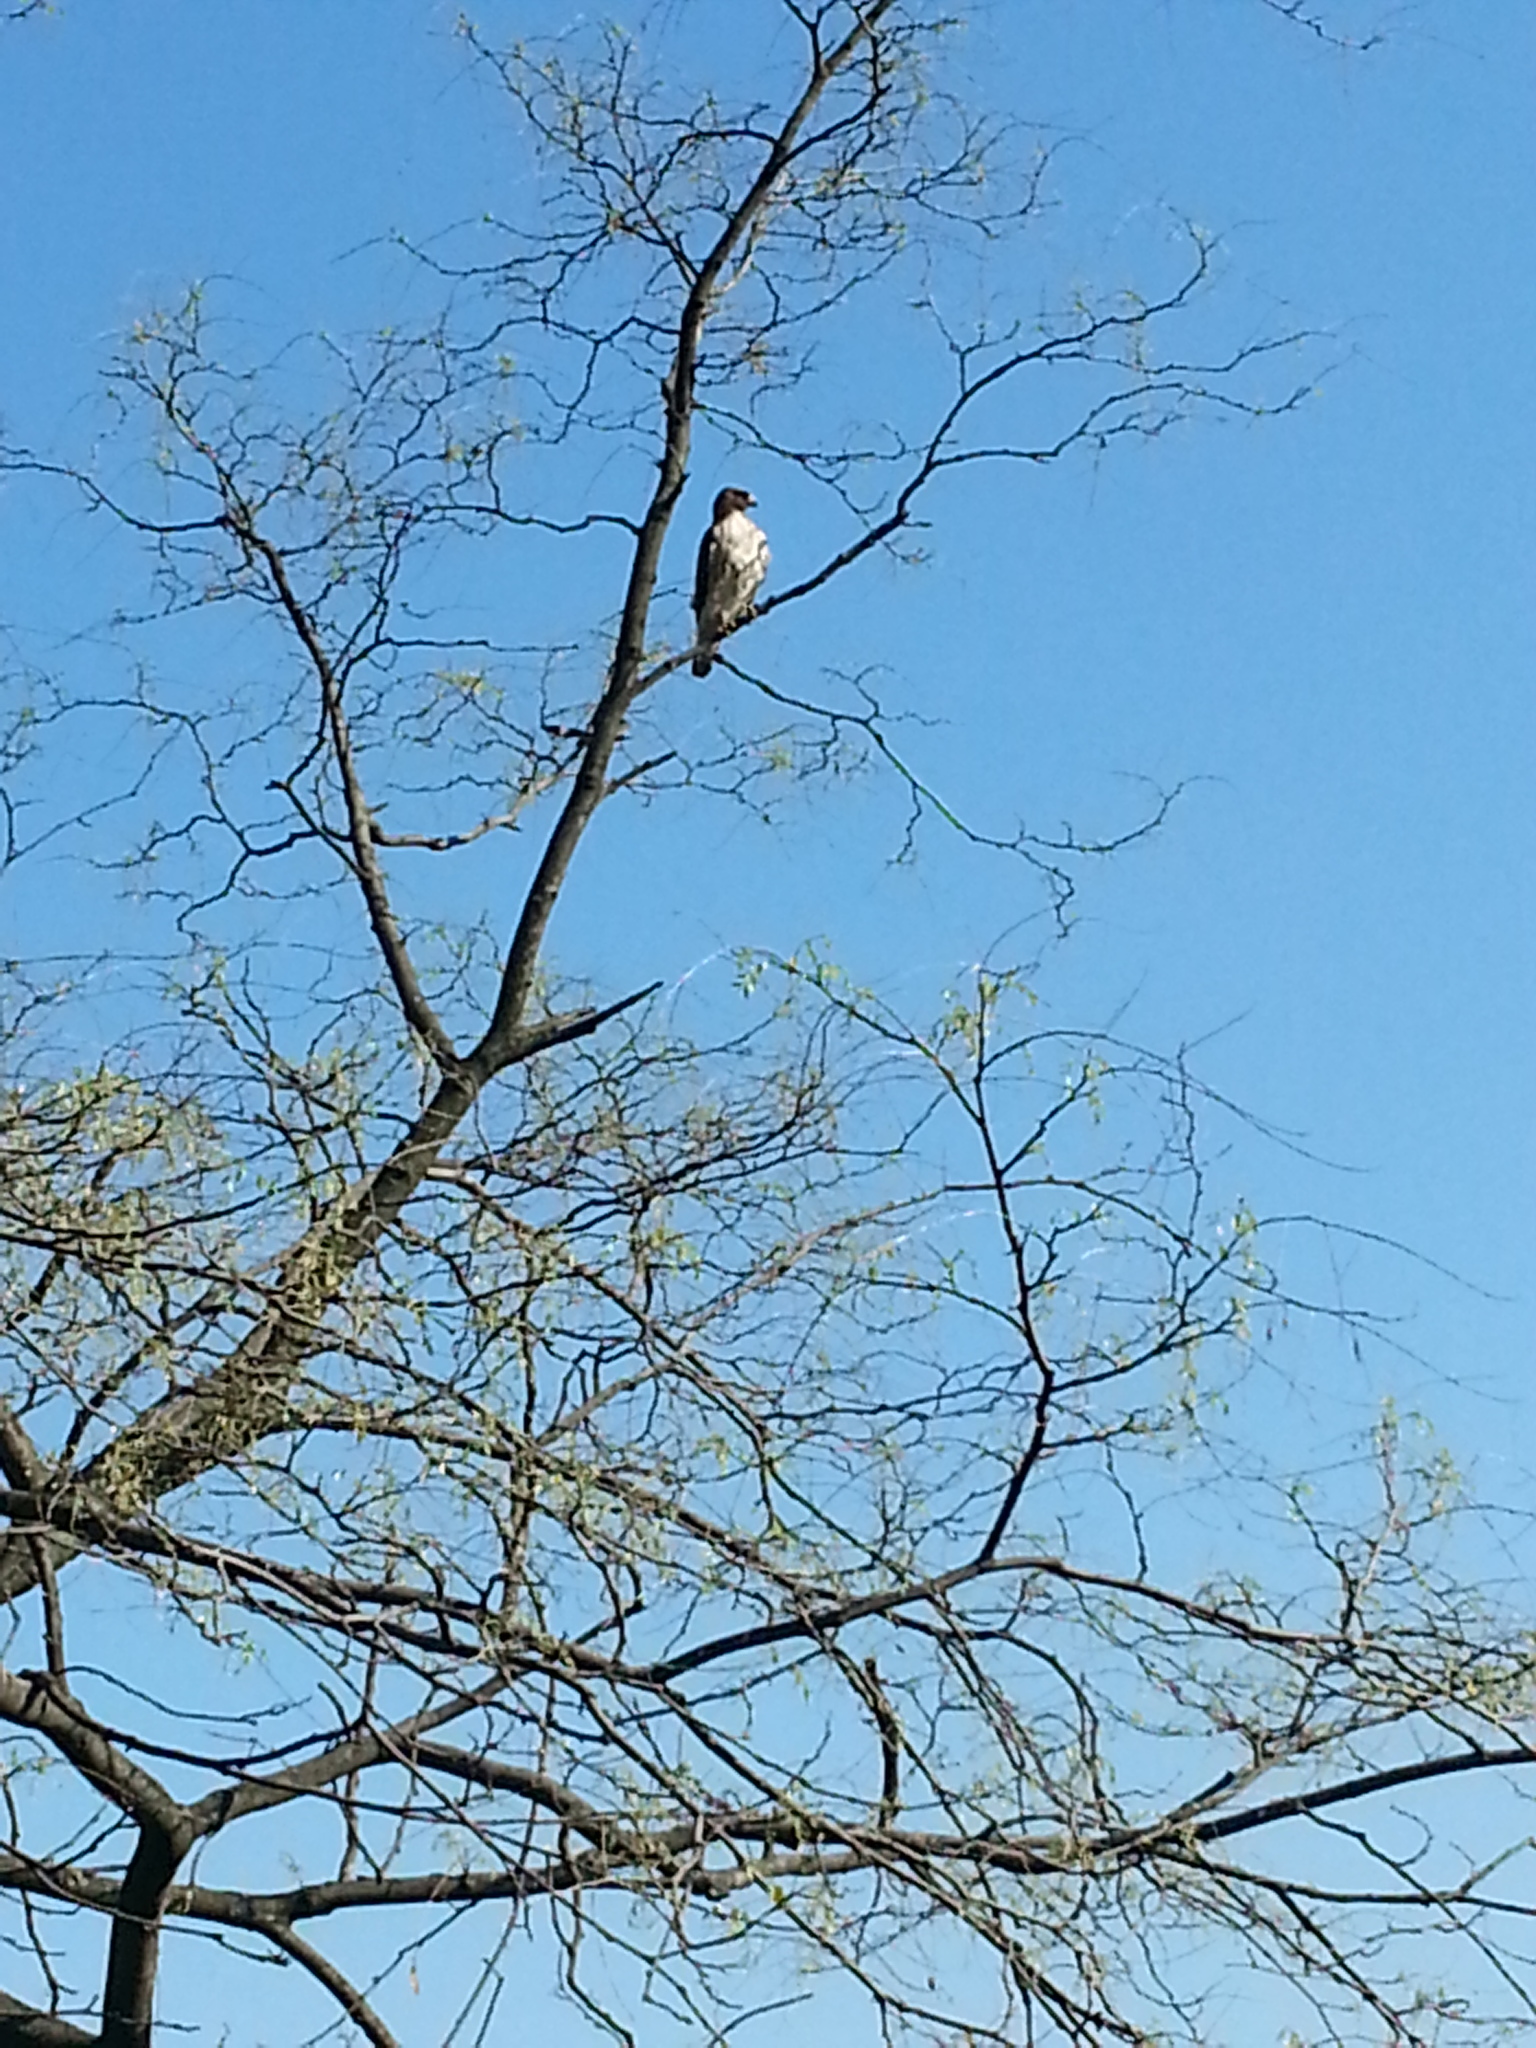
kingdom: Animalia
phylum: Chordata
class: Aves
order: Accipitriformes
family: Accipitridae
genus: Buteo
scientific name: Buteo jamaicensis
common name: Red-tailed hawk
